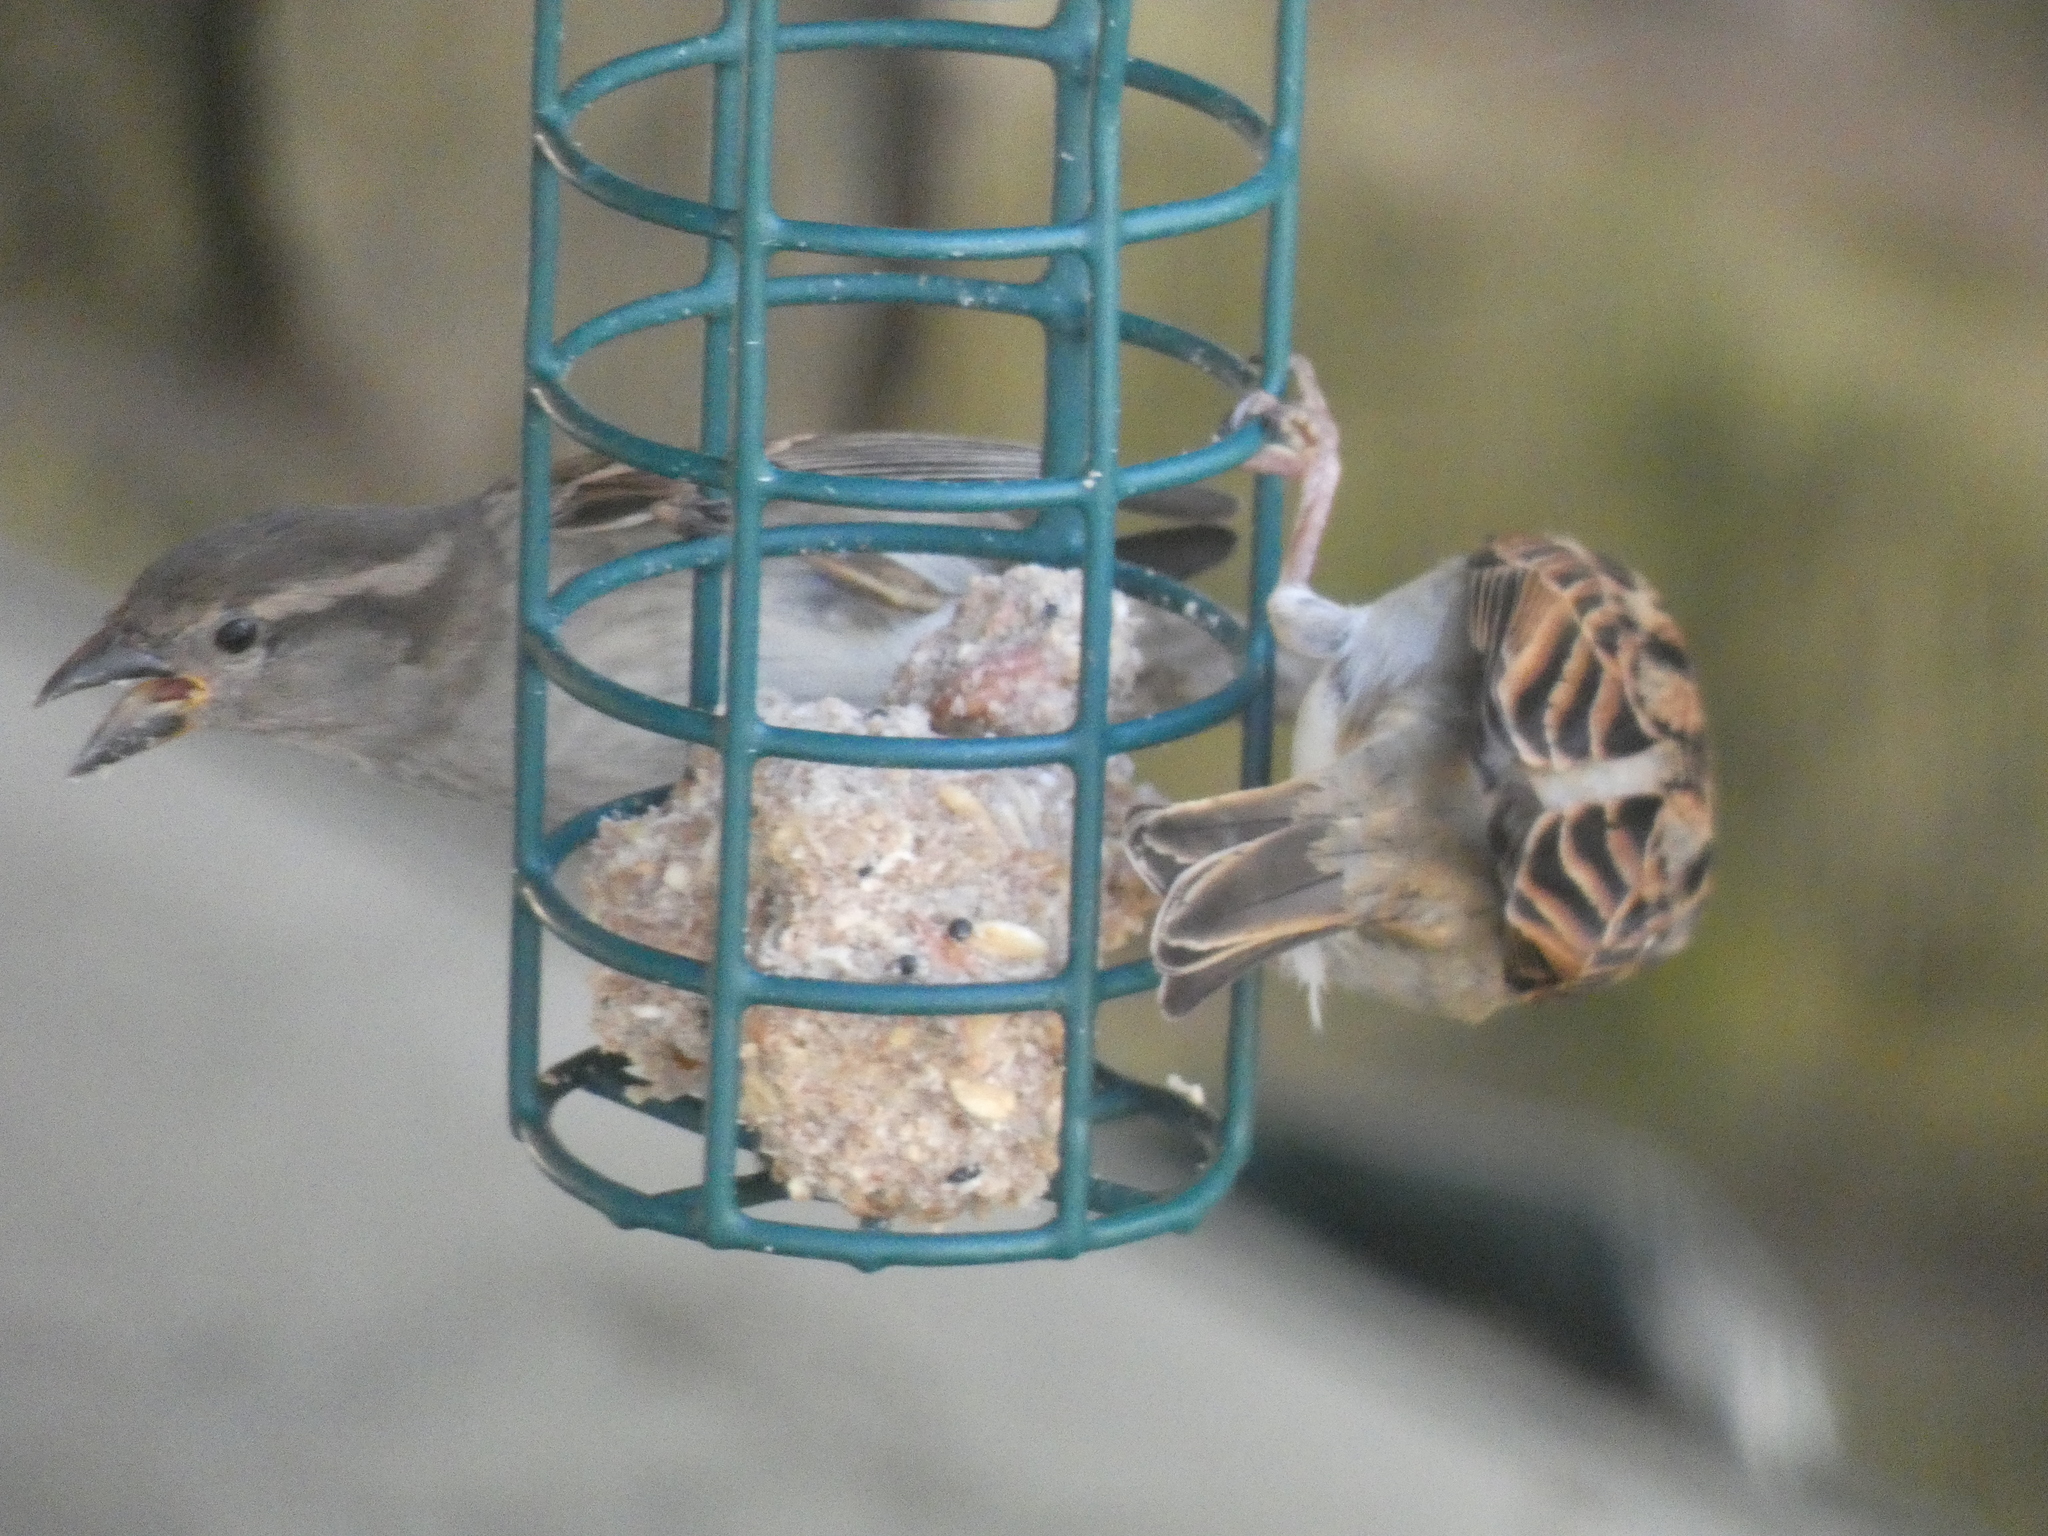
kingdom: Animalia
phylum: Chordata
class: Aves
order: Passeriformes
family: Passeridae
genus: Passer
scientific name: Passer domesticus
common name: House sparrow
